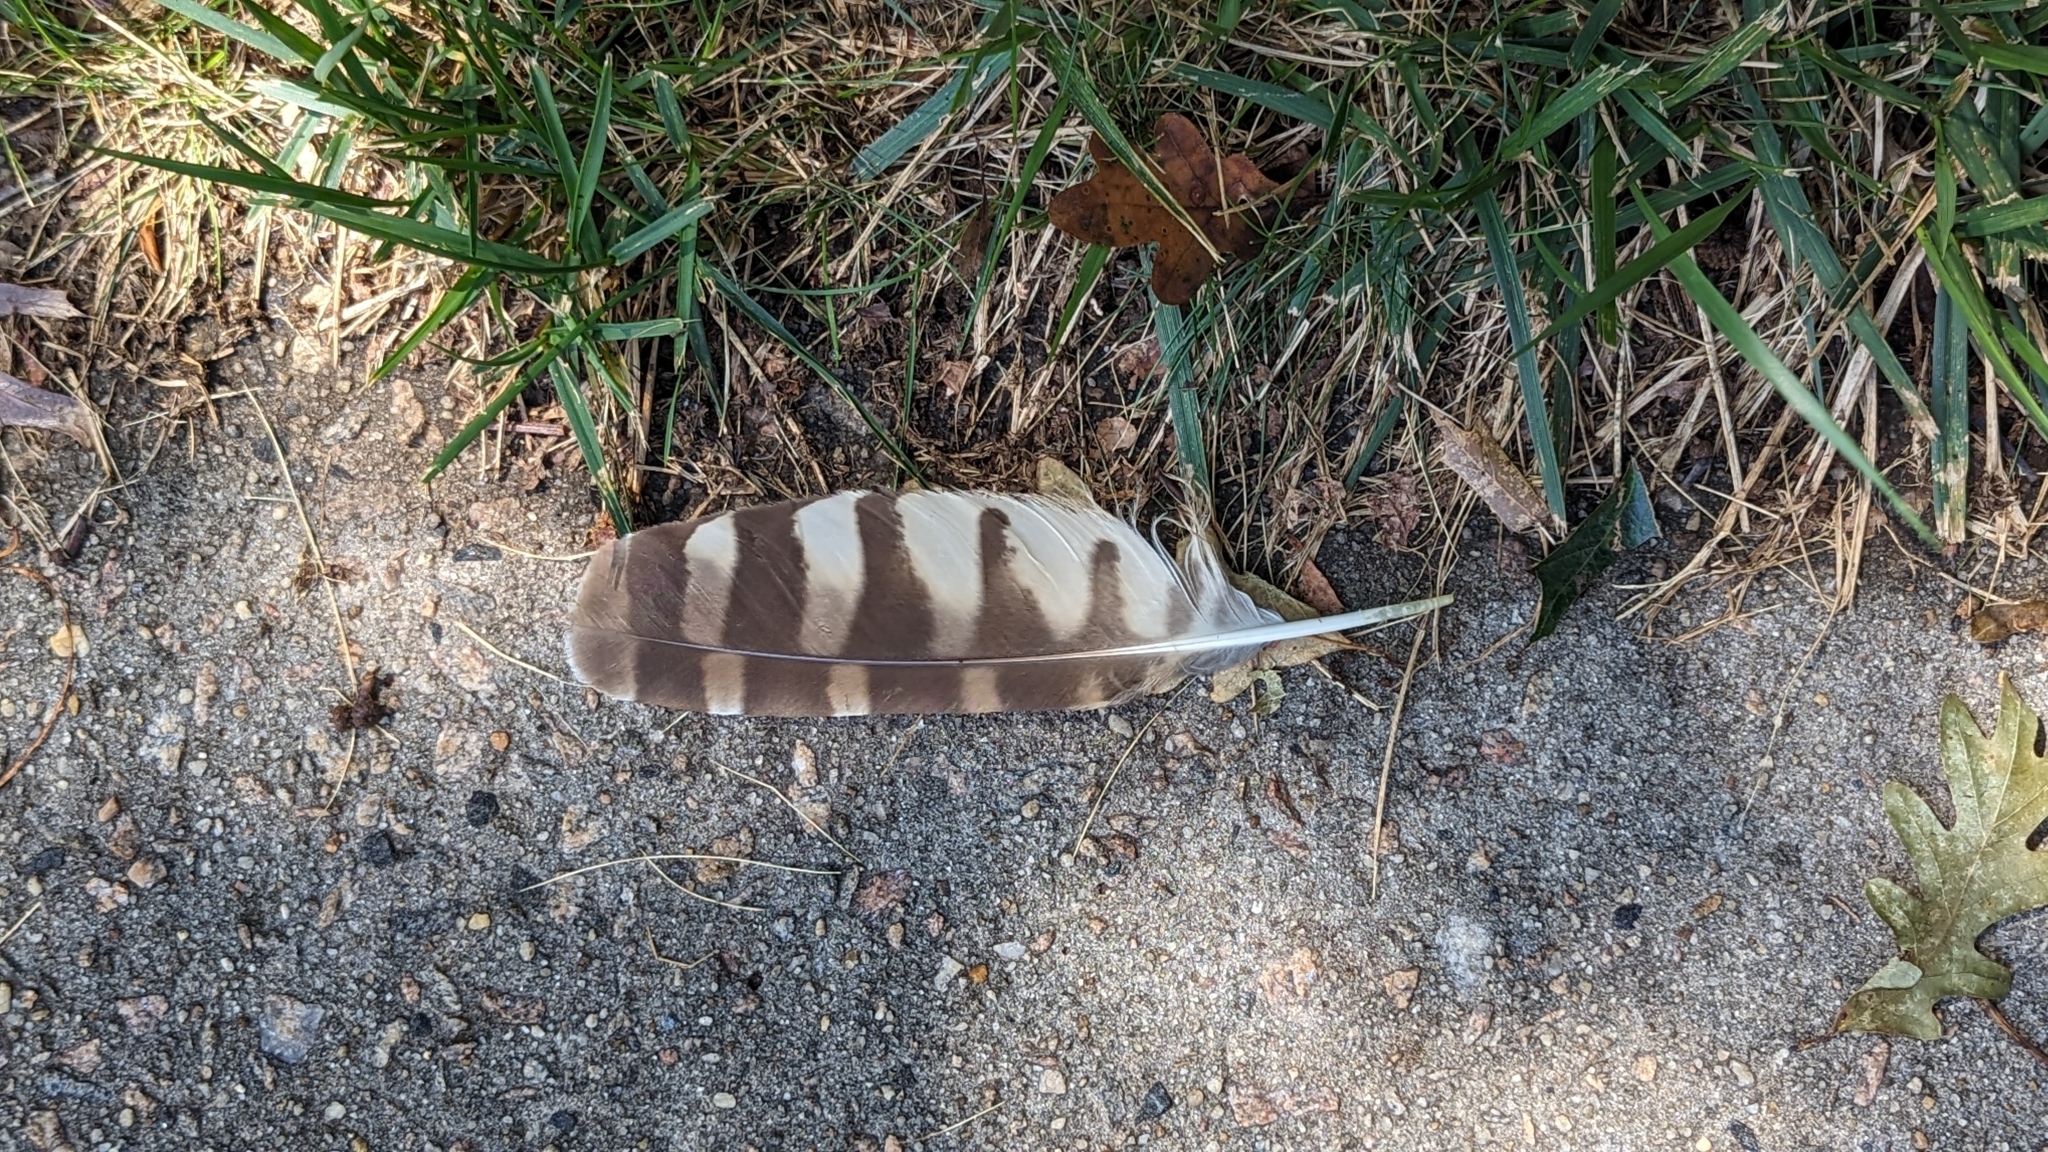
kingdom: Animalia
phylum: Chordata
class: Aves
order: Strigiformes
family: Strigidae
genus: Strix
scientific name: Strix varia
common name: Barred owl
